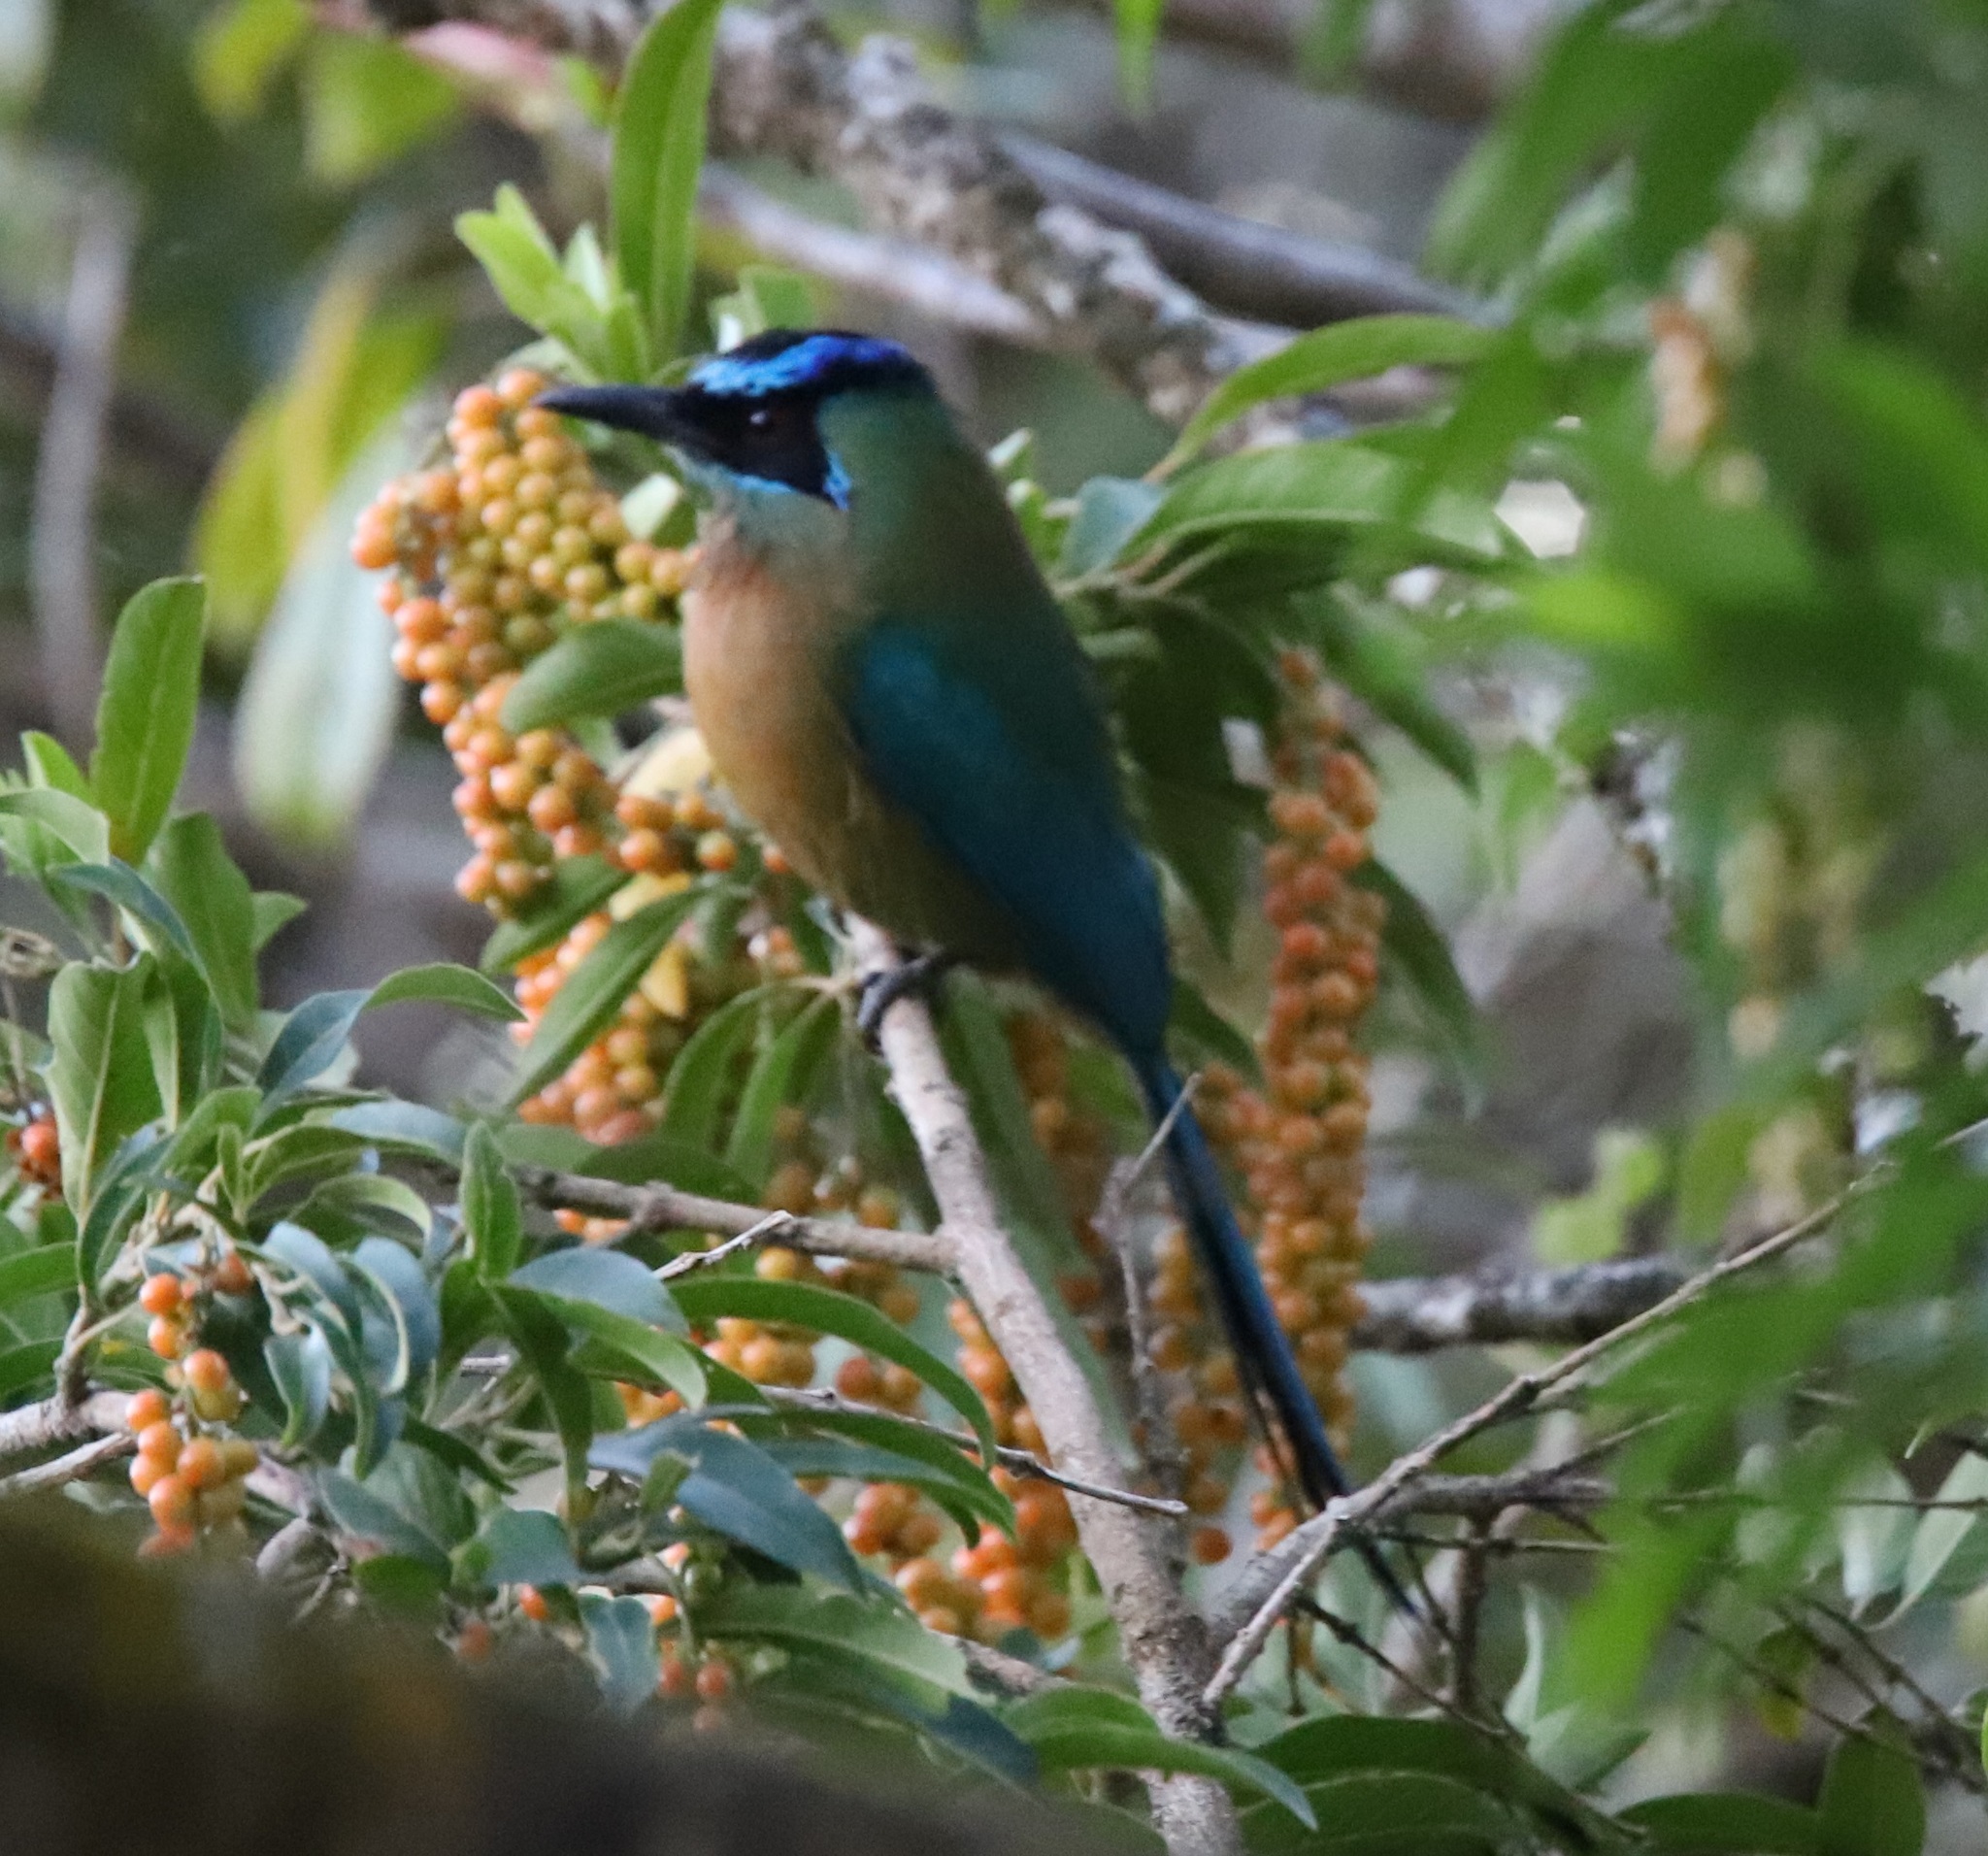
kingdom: Animalia
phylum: Chordata
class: Aves
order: Coraciiformes
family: Momotidae
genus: Momotus
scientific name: Momotus lessonii
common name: Lesson's motmot
